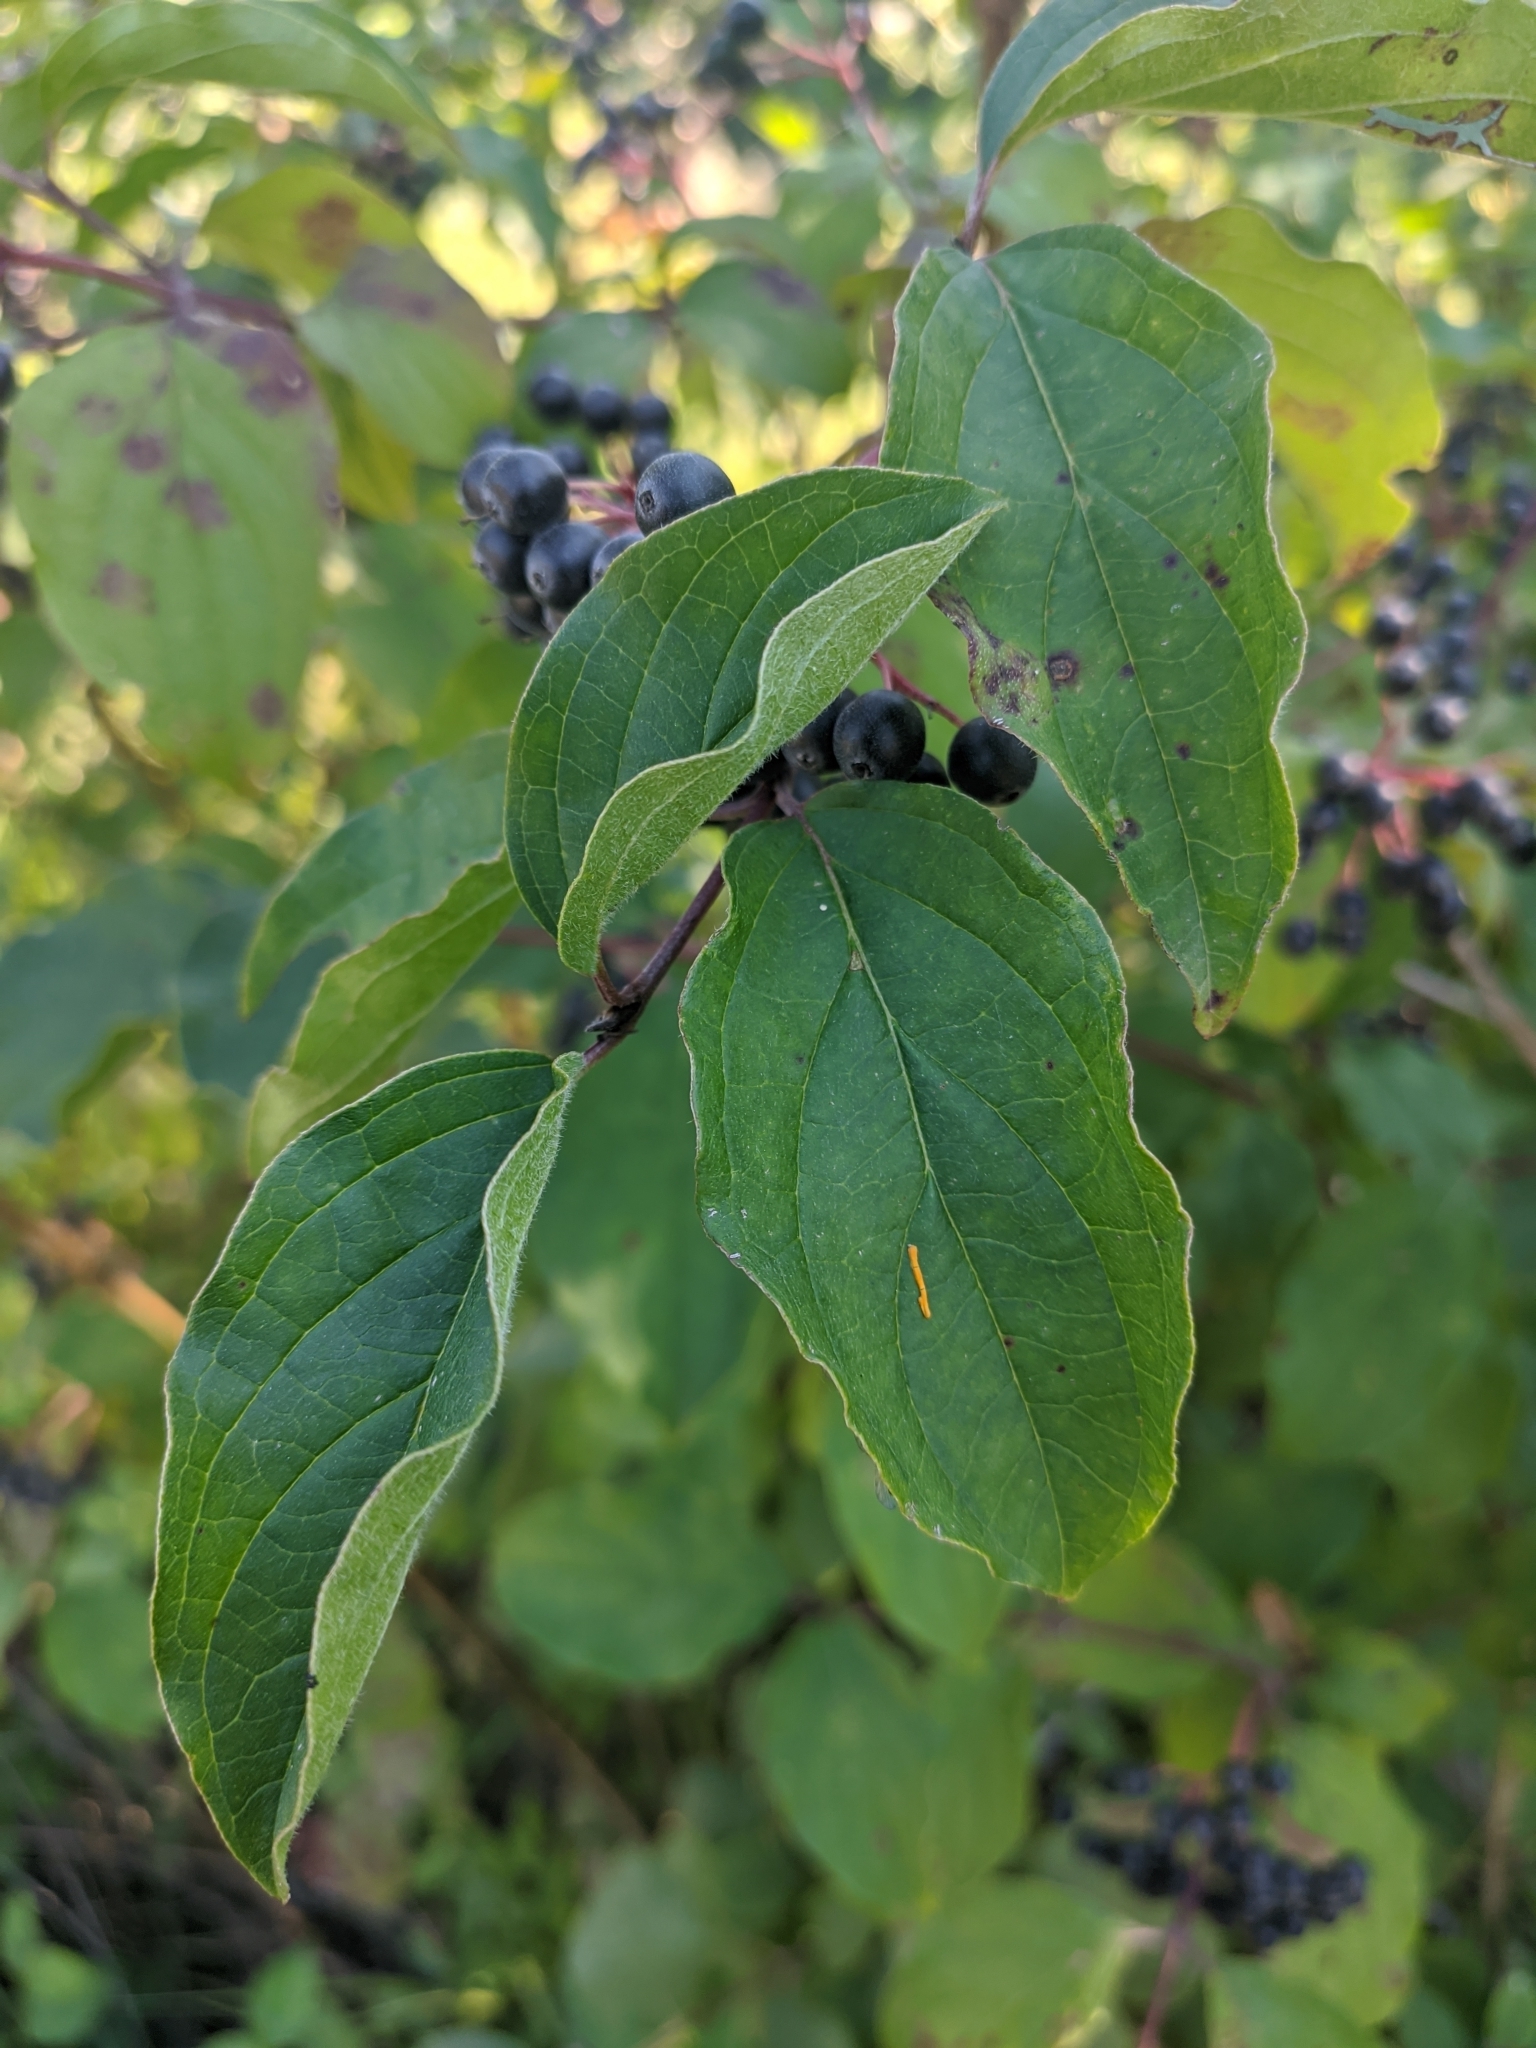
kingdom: Plantae
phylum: Tracheophyta
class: Magnoliopsida
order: Cornales
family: Cornaceae
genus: Cornus
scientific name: Cornus sanguinea
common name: Dogwood
